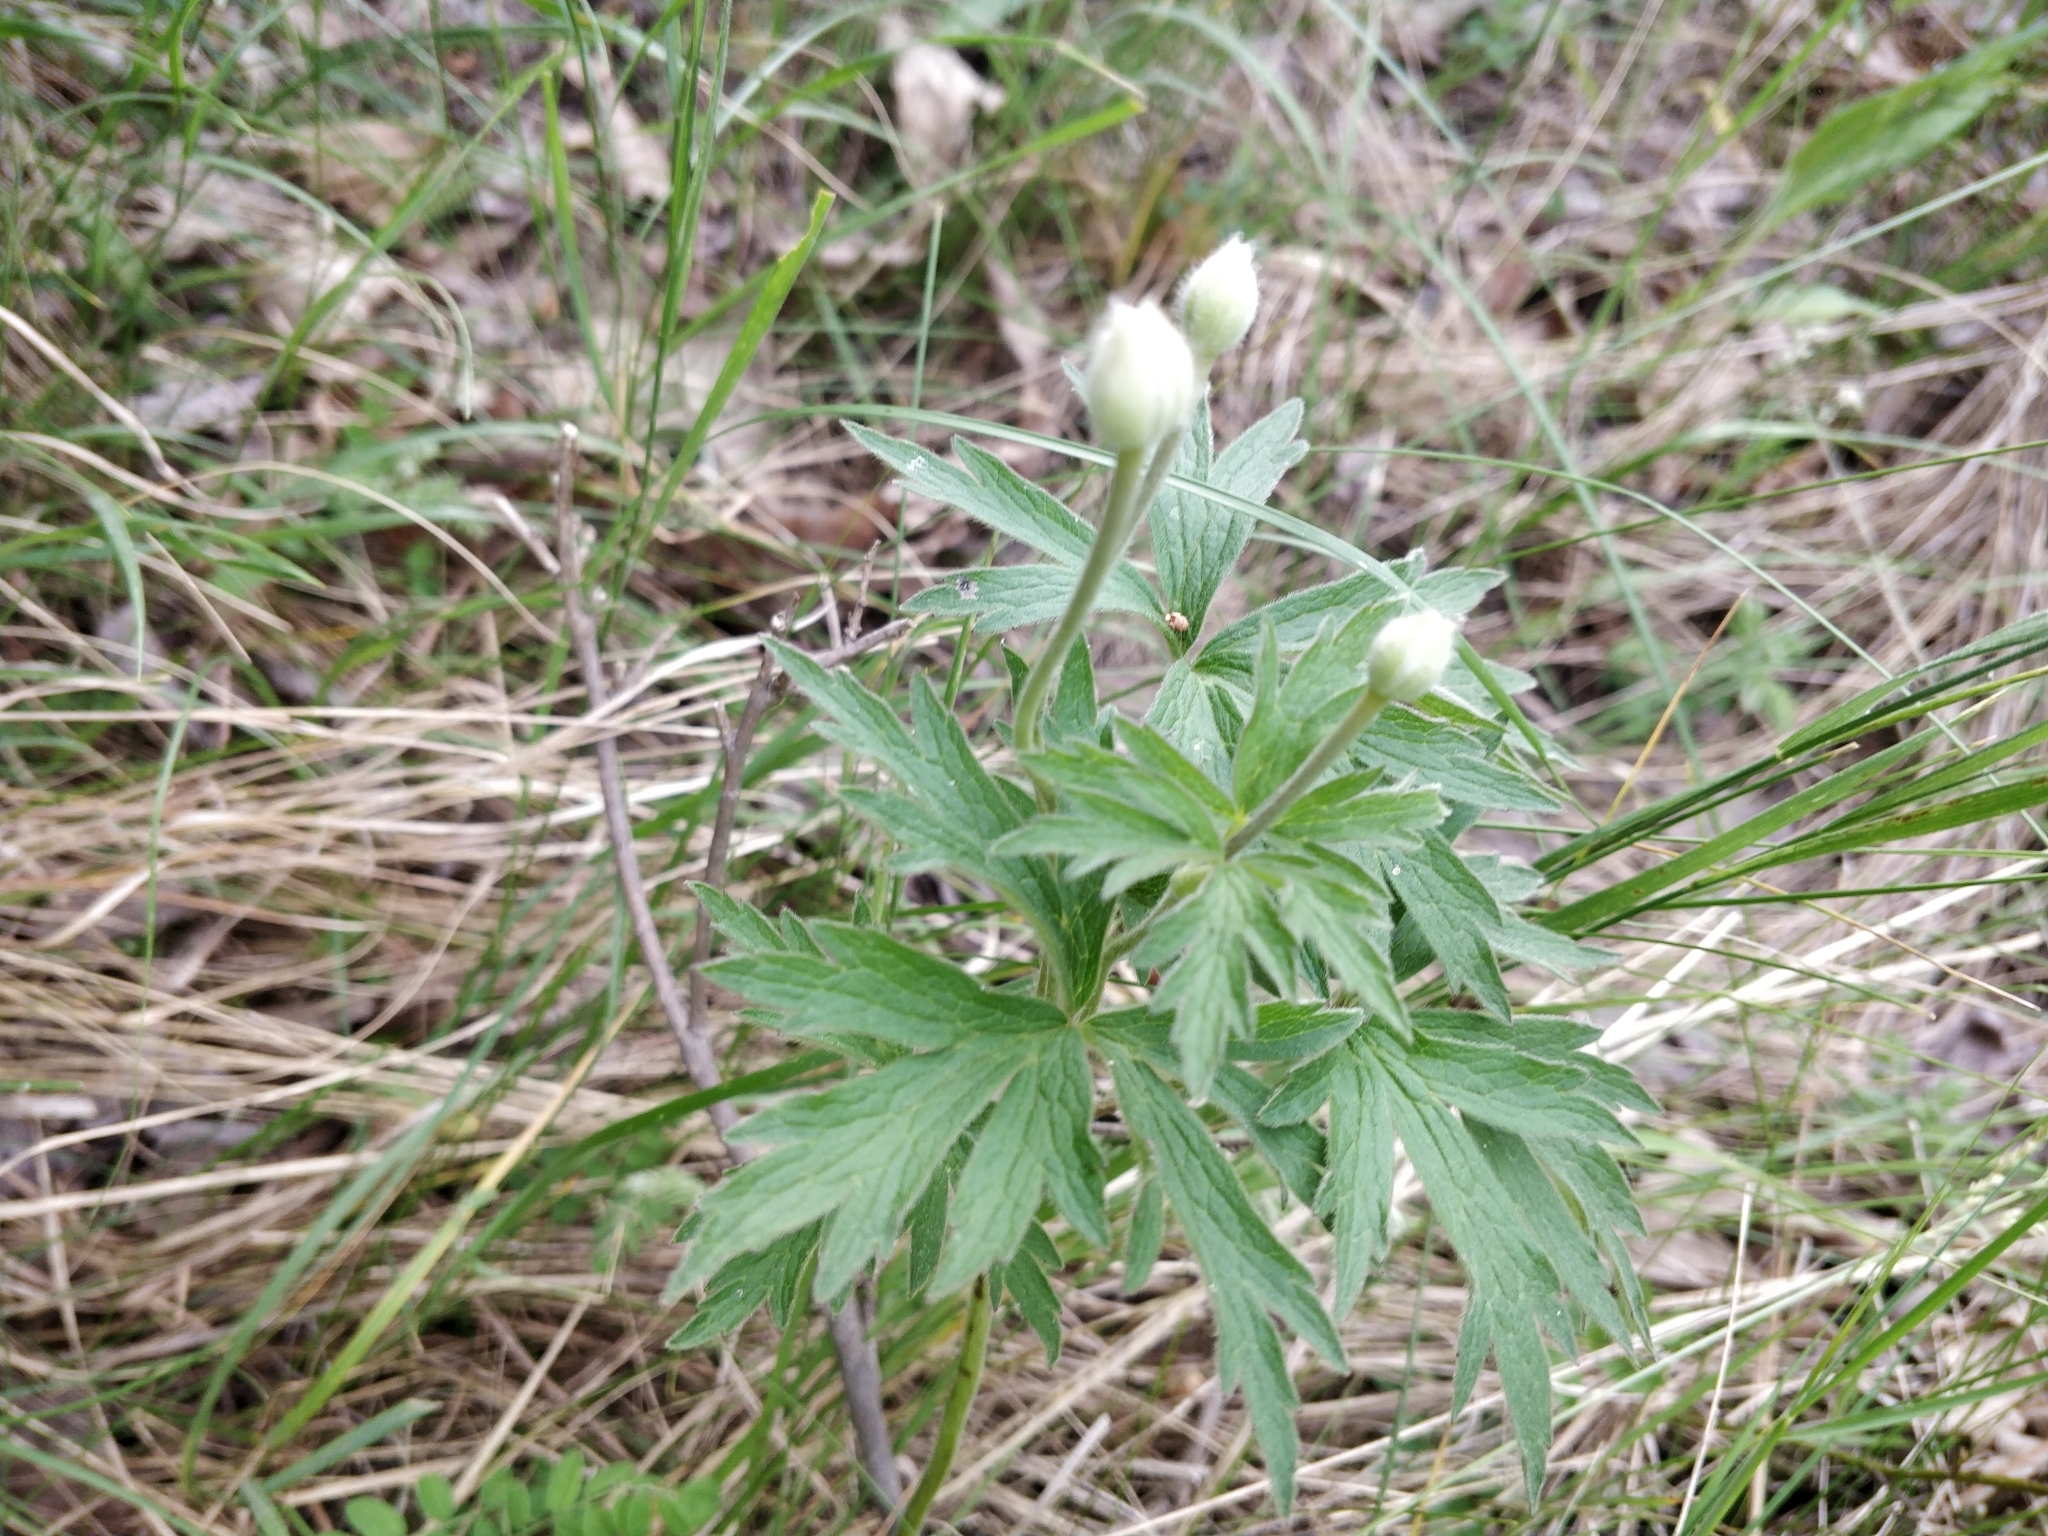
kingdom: Plantae
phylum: Tracheophyta
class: Magnoliopsida
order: Ranunculales
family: Ranunculaceae
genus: Anemone
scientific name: Anemone cylindrica
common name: Candle anemone
